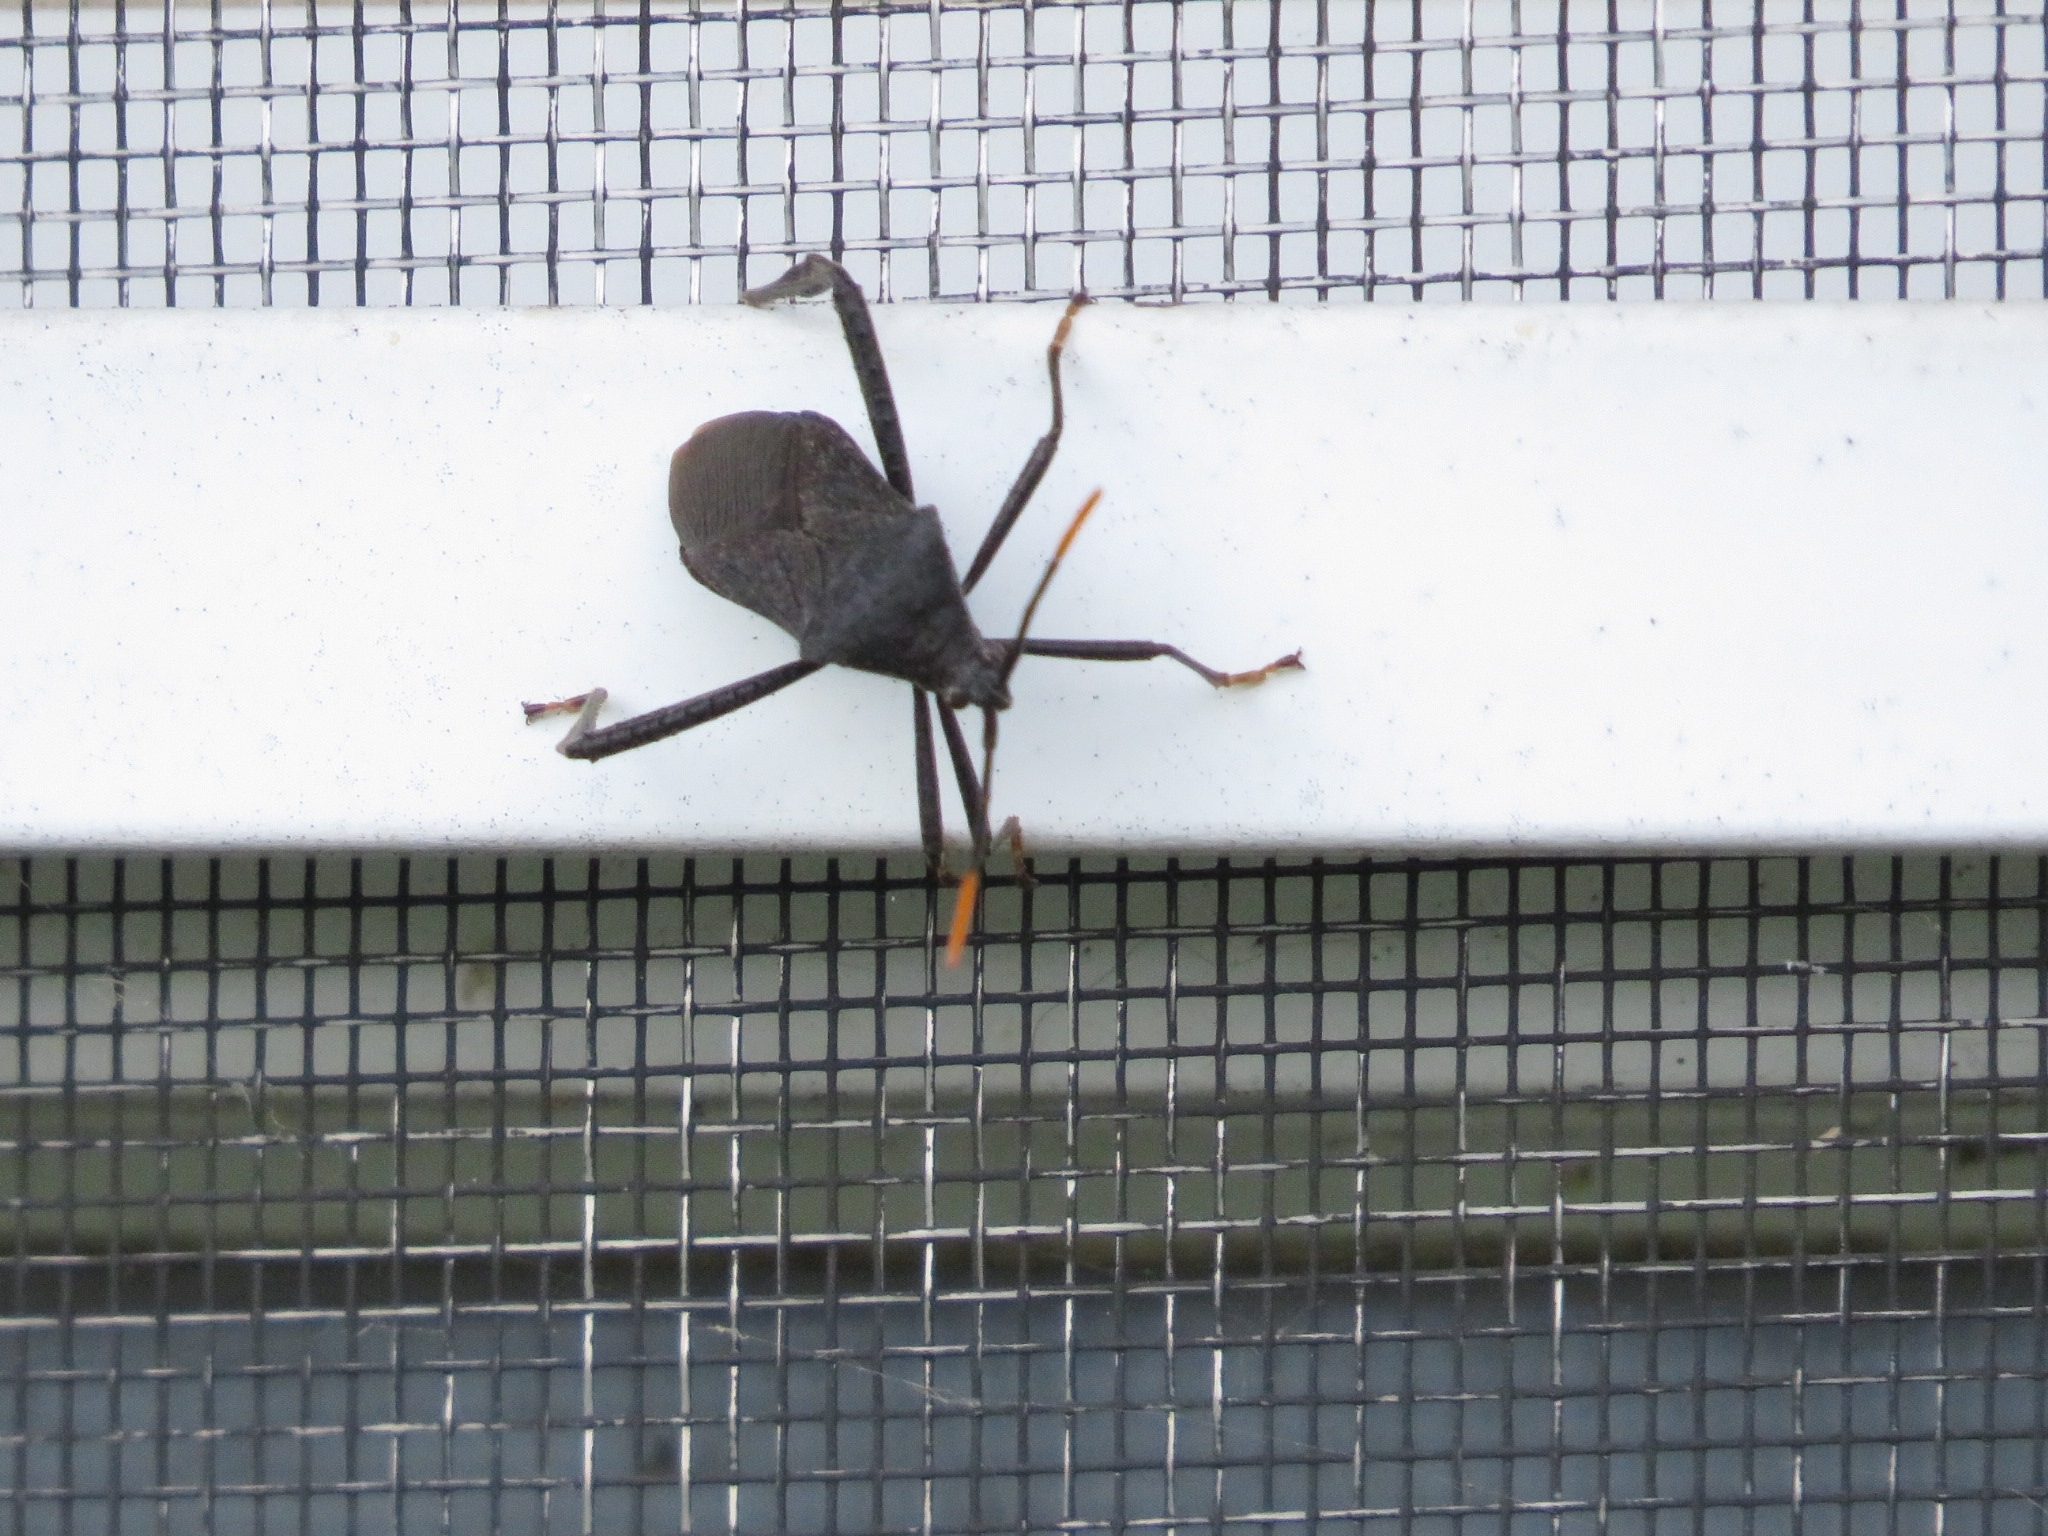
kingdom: Animalia
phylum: Arthropoda
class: Insecta
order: Hemiptera
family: Coreidae
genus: Acanthocephala
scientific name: Acanthocephala terminalis
